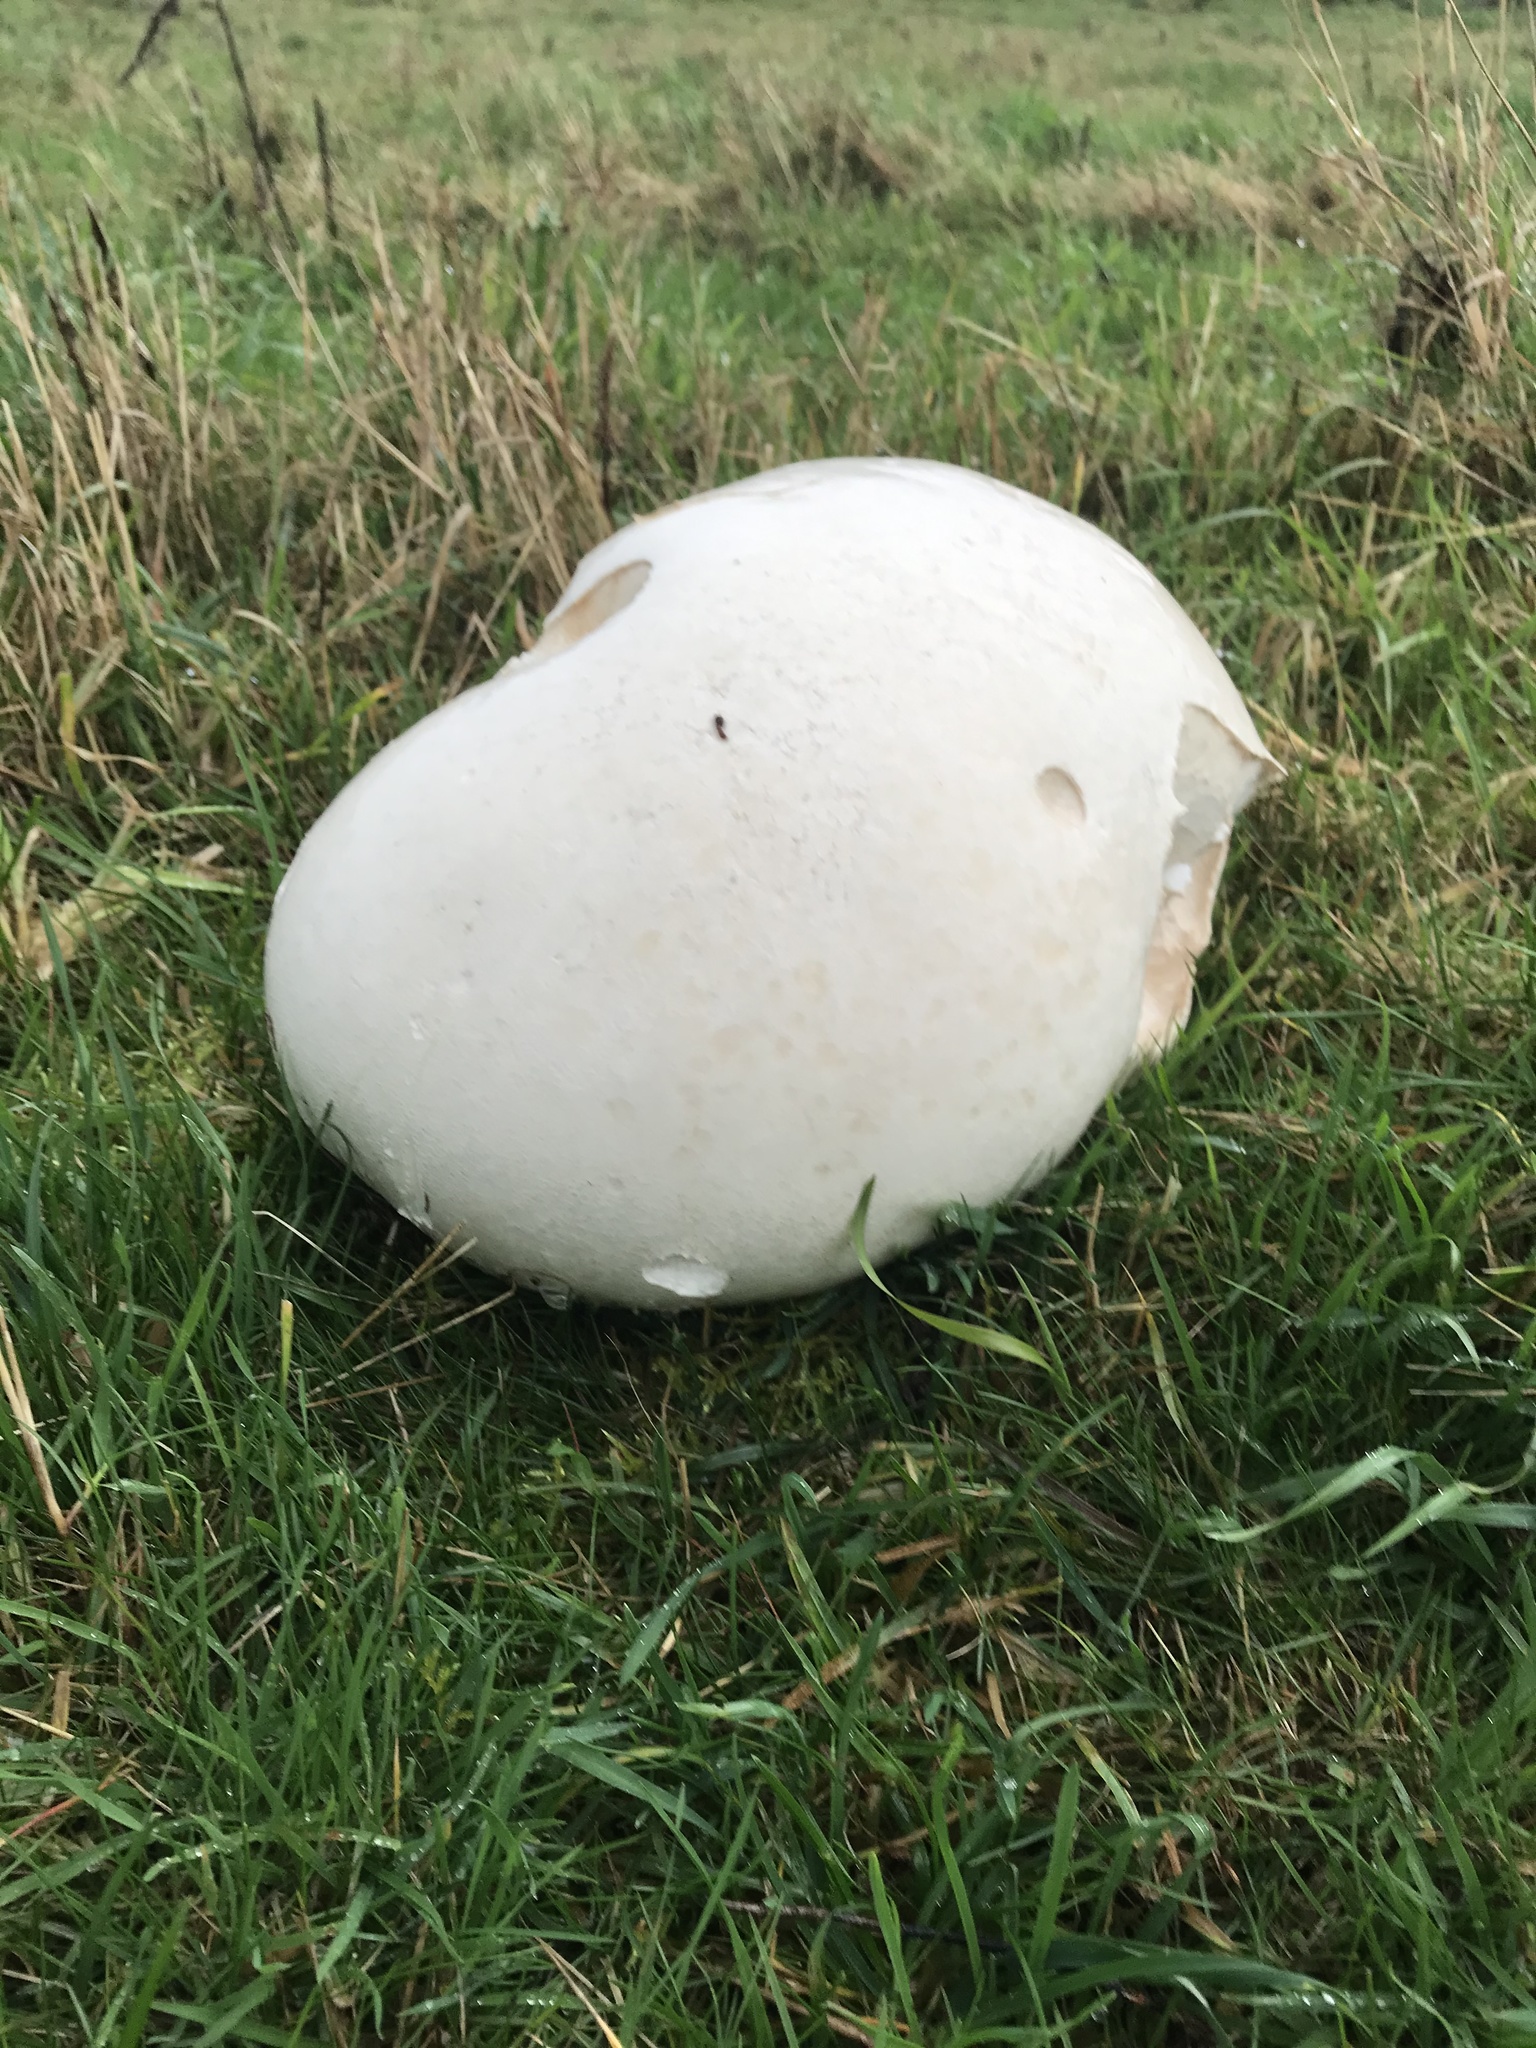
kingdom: Fungi
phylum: Basidiomycota
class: Agaricomycetes
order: Agaricales
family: Lycoperdaceae
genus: Calvatia
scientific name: Calvatia gigantea
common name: Giant puffball
